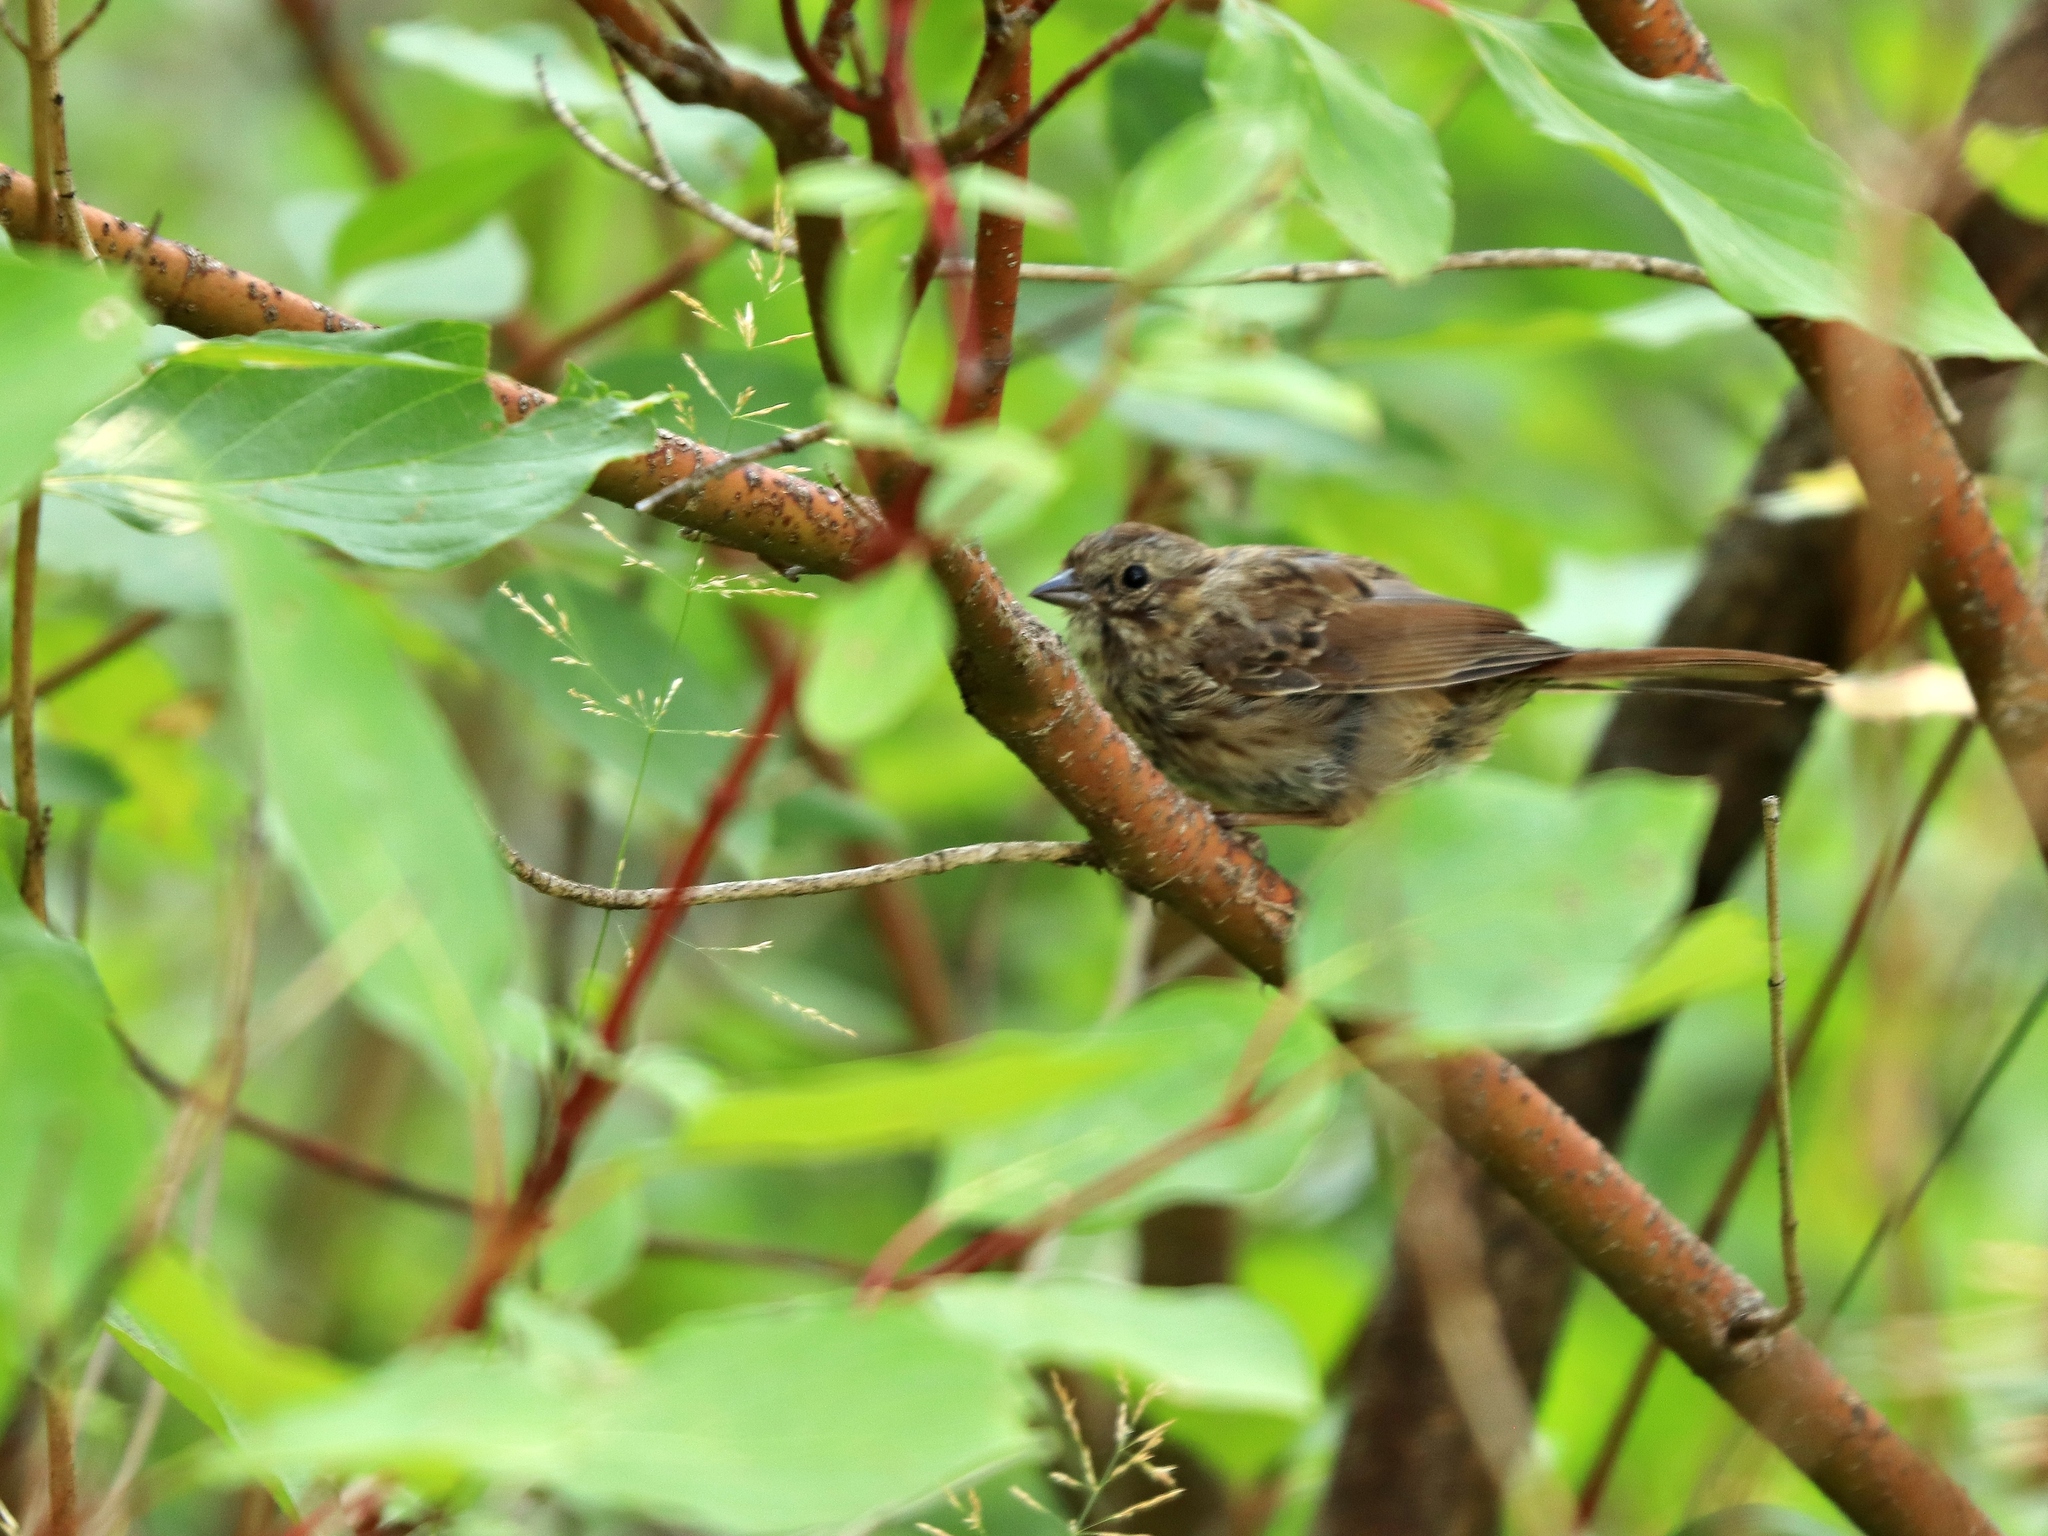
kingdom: Animalia
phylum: Chordata
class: Aves
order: Passeriformes
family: Passerellidae
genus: Melospiza
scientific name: Melospiza melodia
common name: Song sparrow
